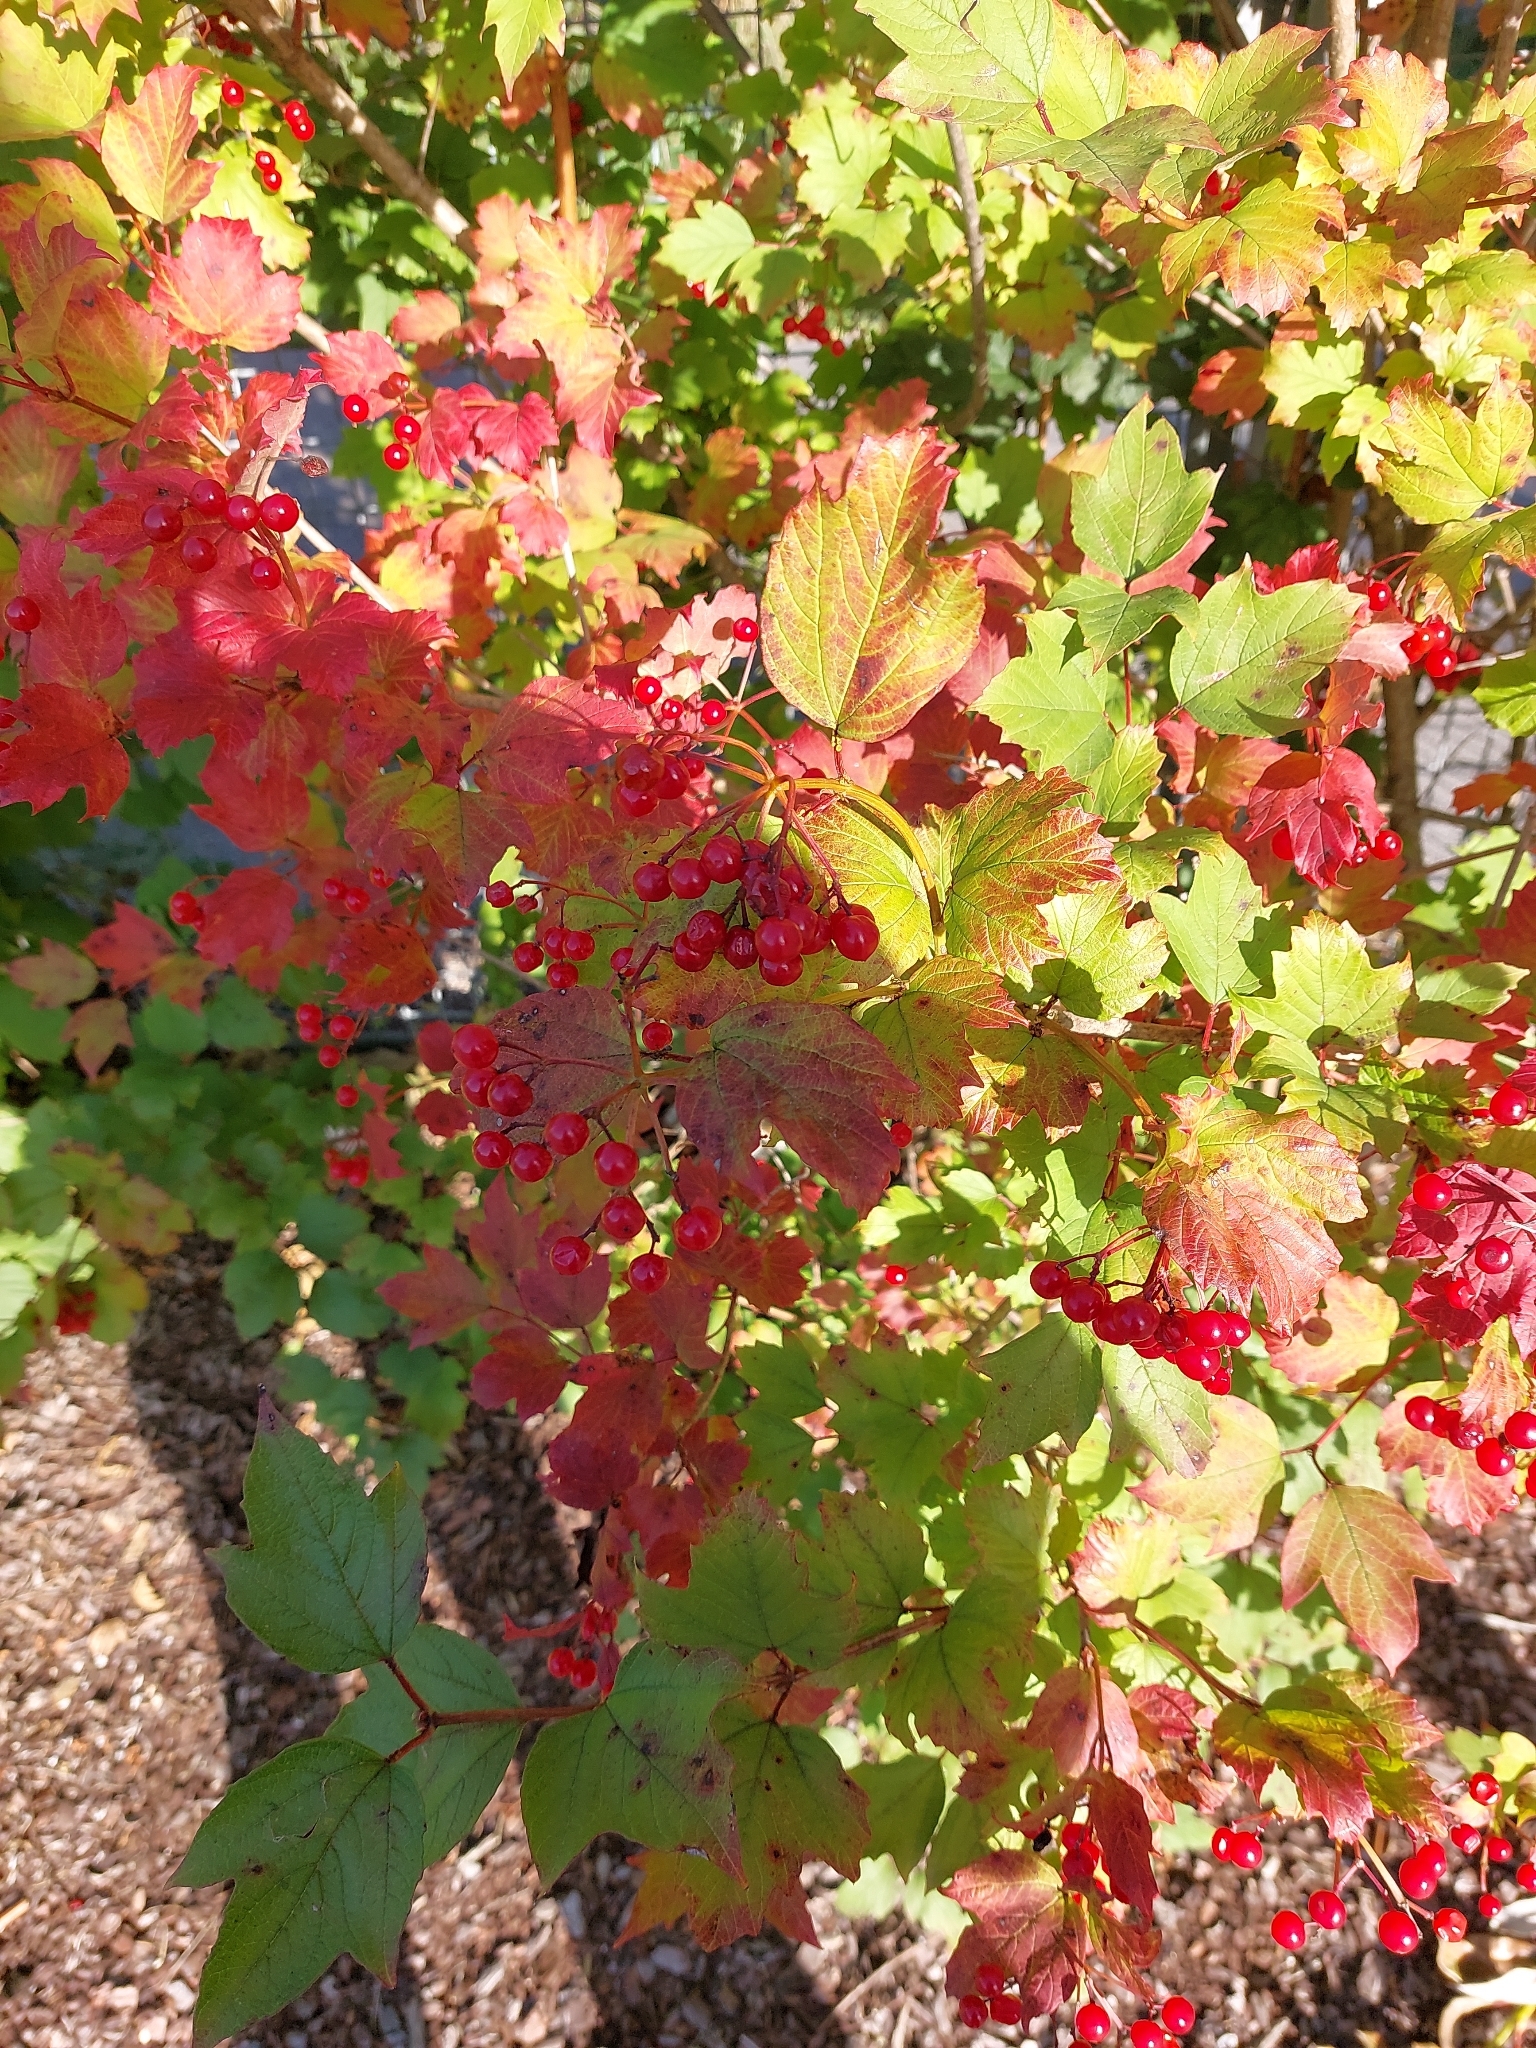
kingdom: Plantae
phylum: Tracheophyta
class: Magnoliopsida
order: Dipsacales
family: Viburnaceae
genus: Viburnum
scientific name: Viburnum opulus
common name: Guelder-rose
